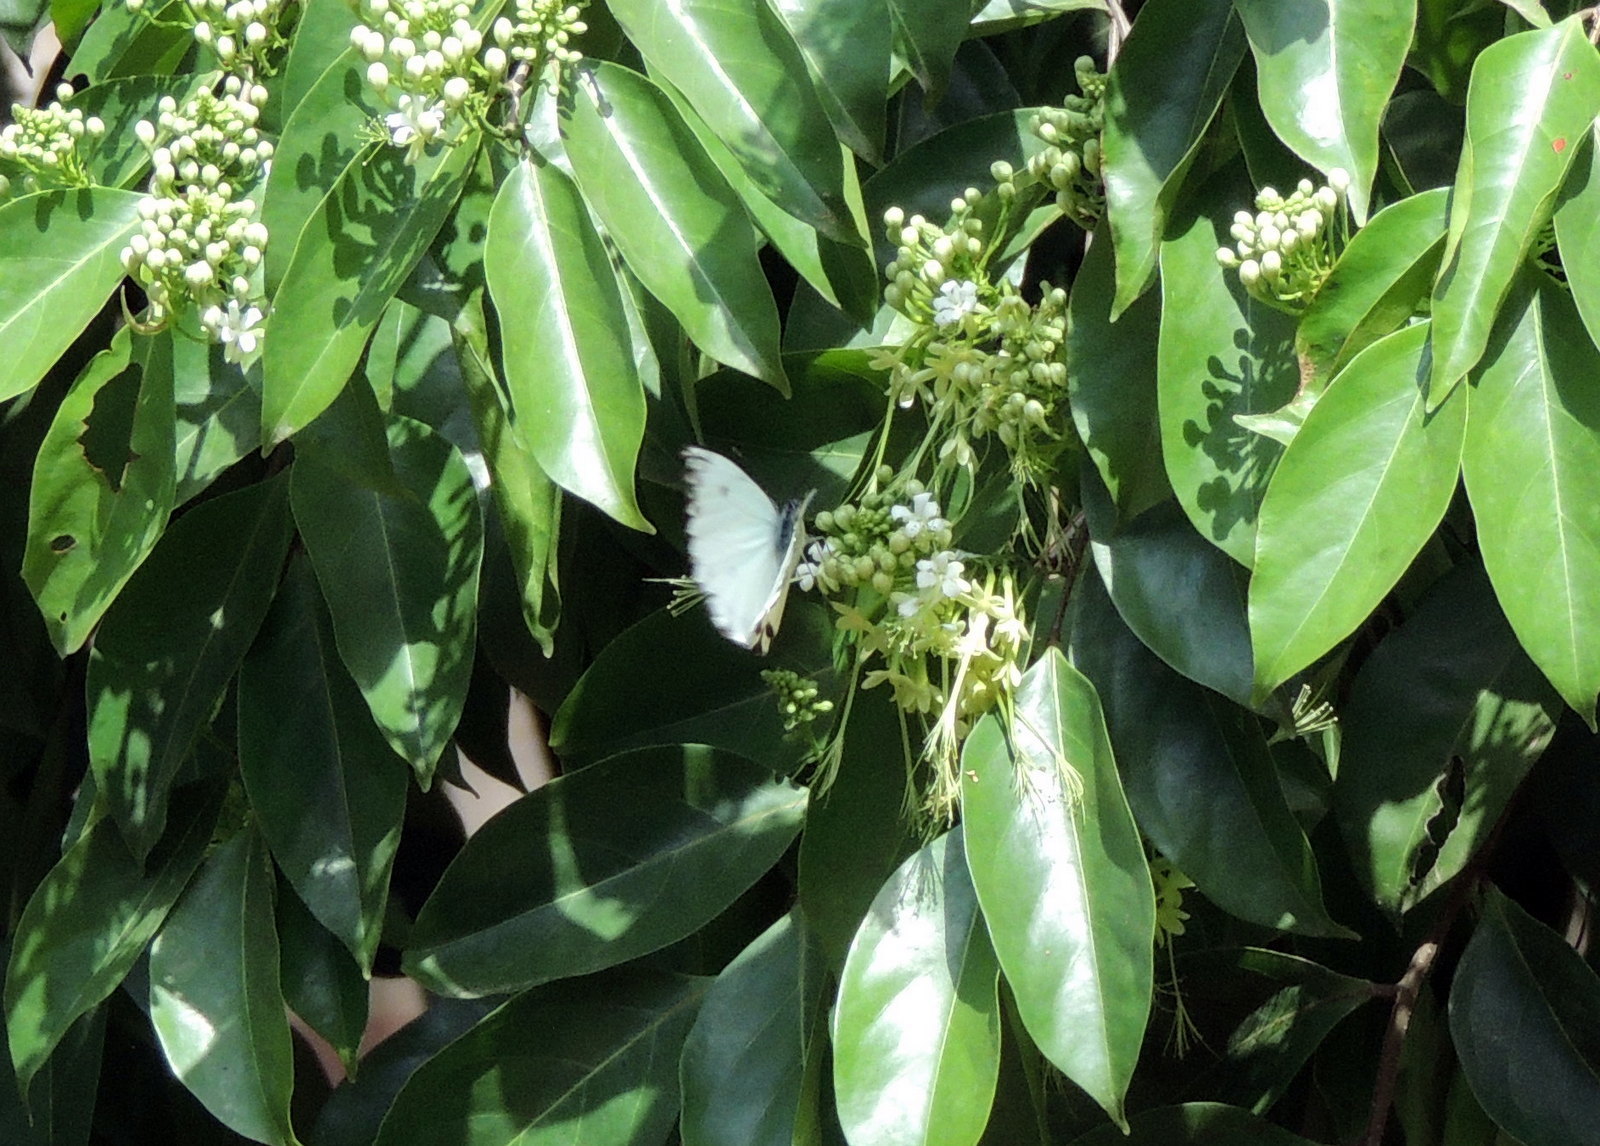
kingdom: Animalia
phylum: Arthropoda
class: Insecta
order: Lepidoptera
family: Pieridae
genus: Belenois
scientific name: Belenois calypso
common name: Calypso caper white
